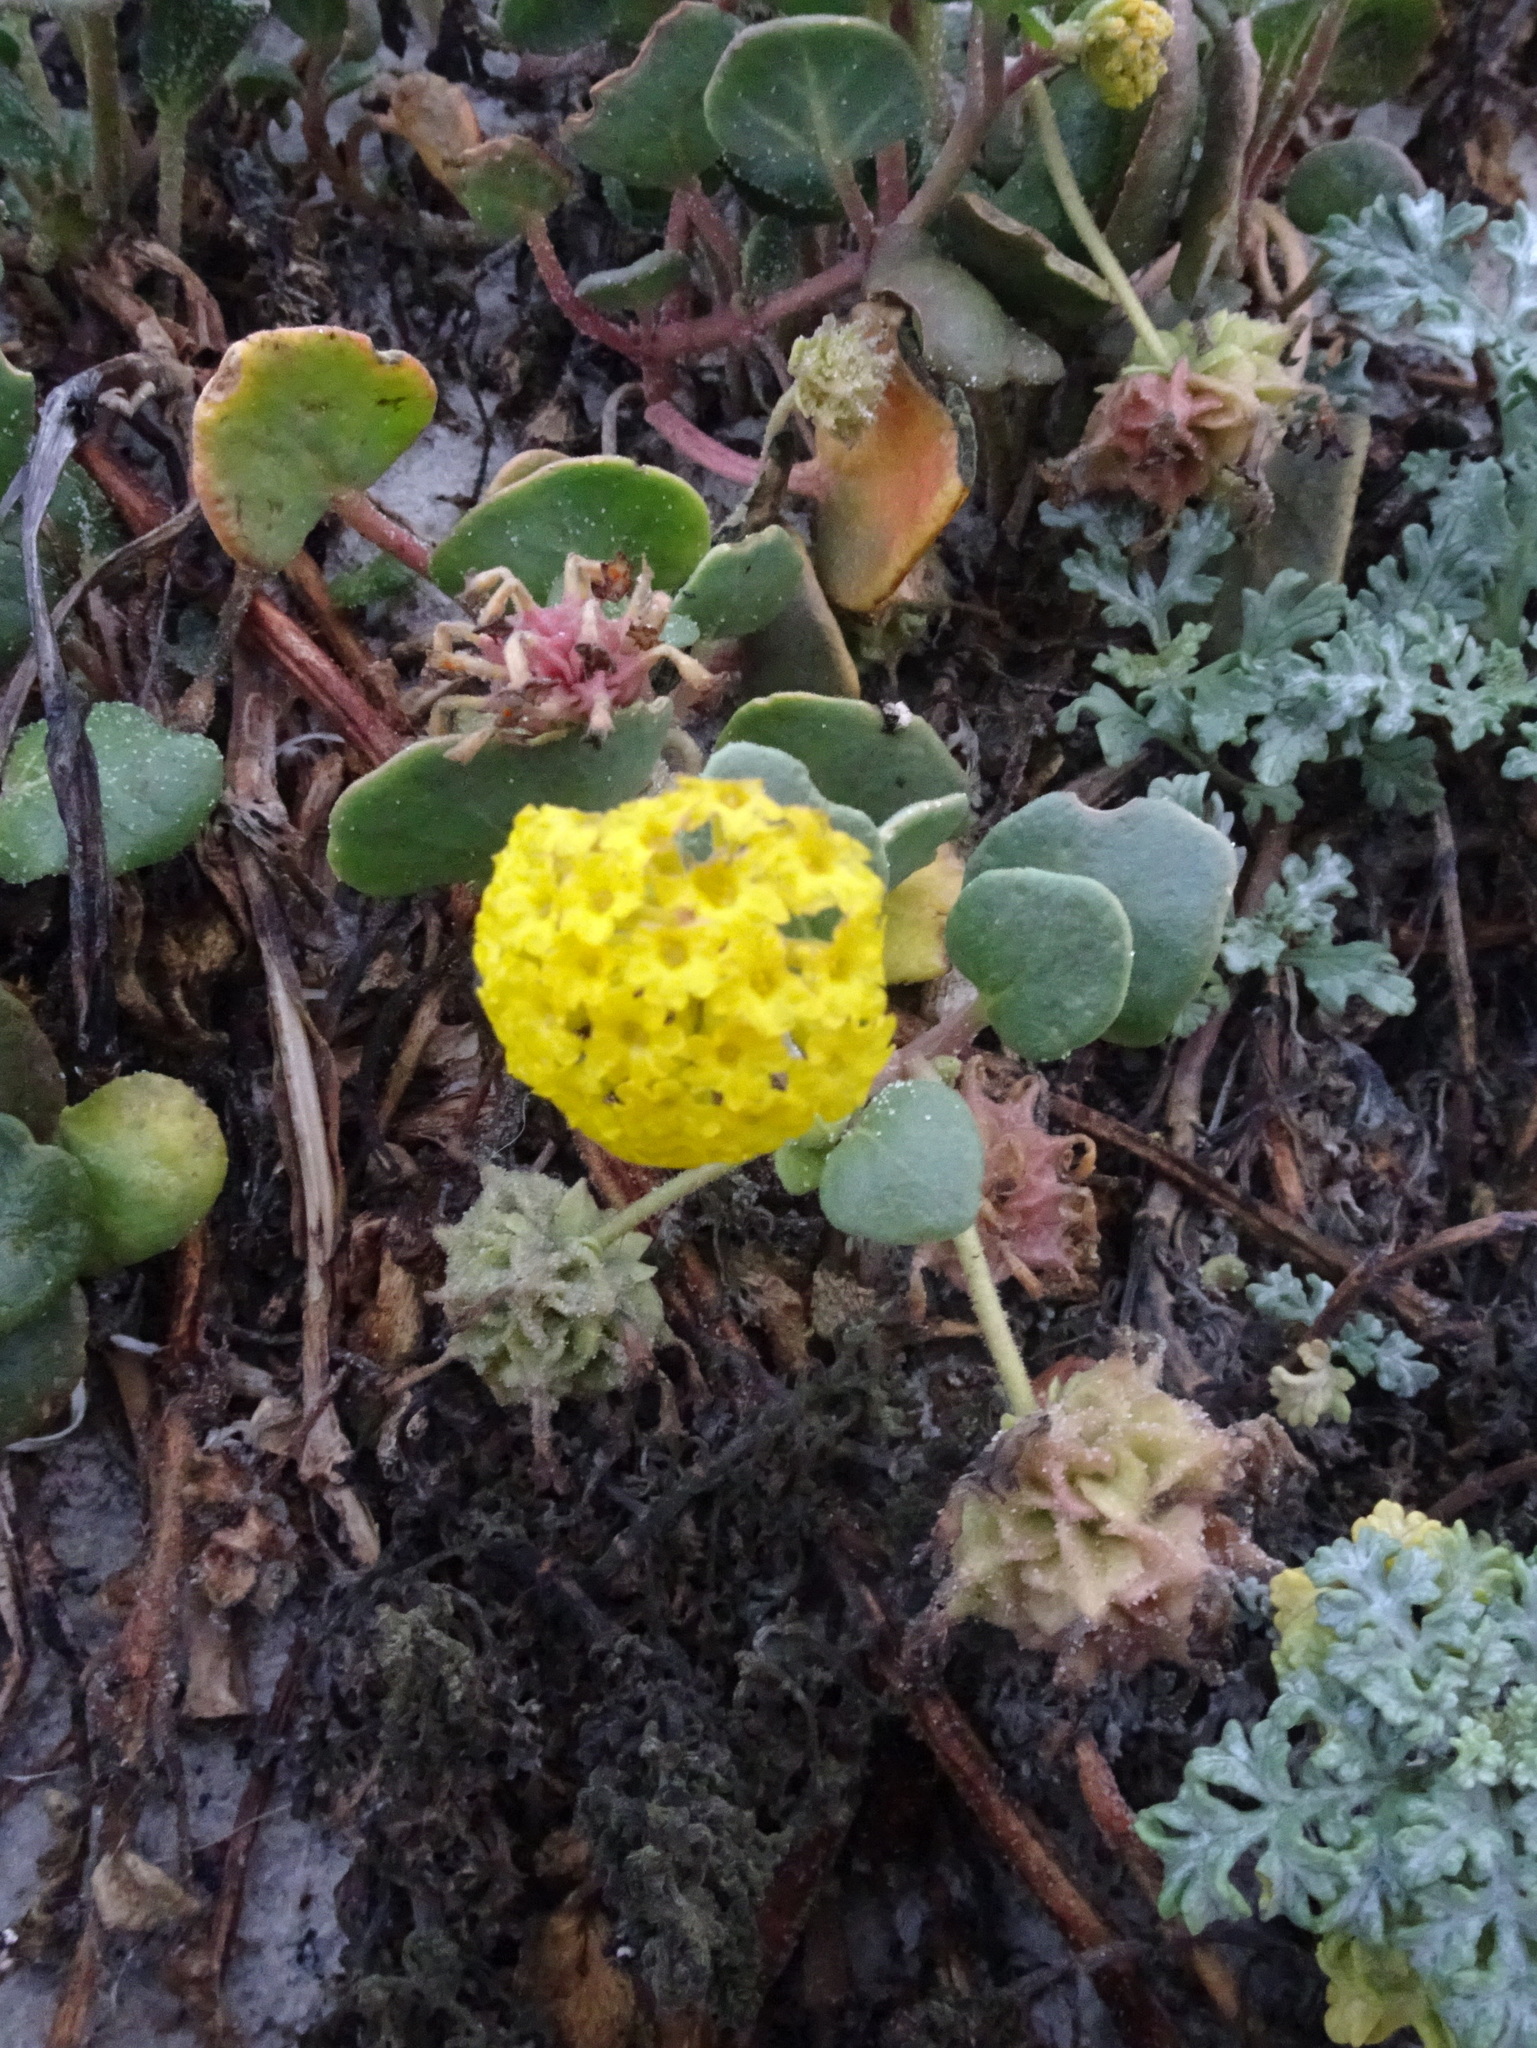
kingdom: Plantae
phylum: Tracheophyta
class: Magnoliopsida
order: Caryophyllales
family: Nyctaginaceae
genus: Abronia
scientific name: Abronia latifolia
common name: Yellow sand-verbena
